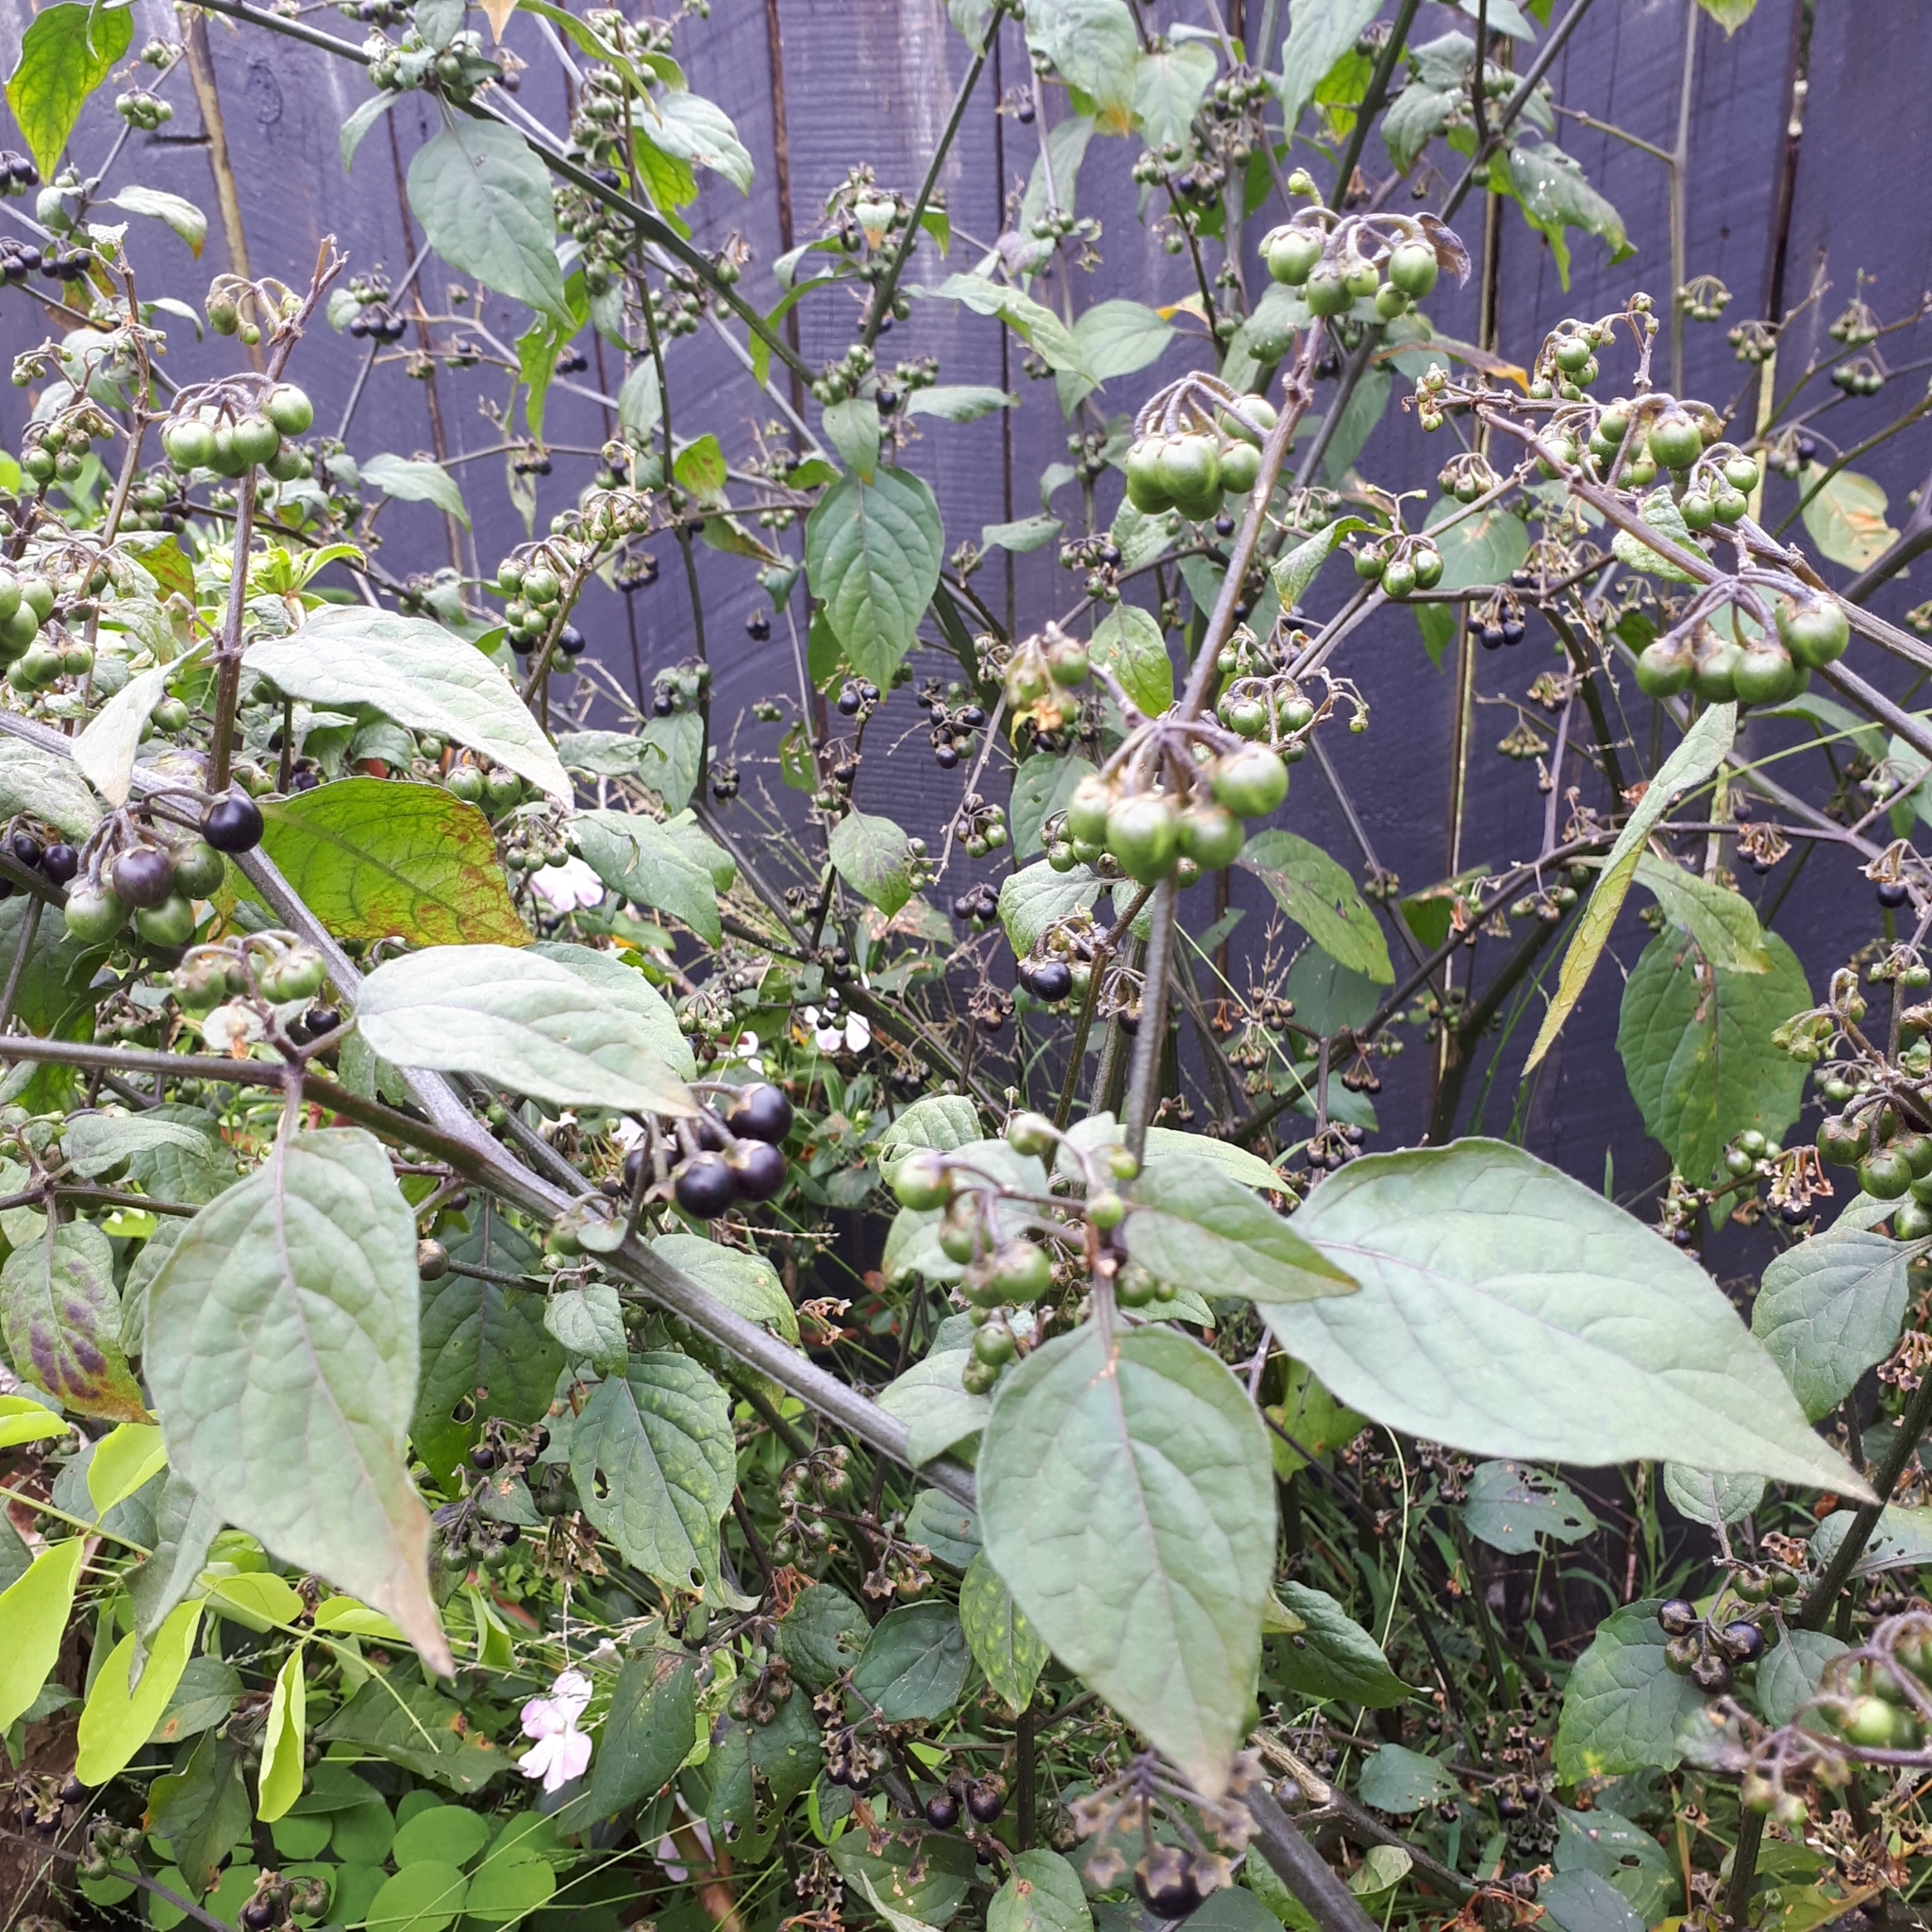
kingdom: Plantae
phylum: Tracheophyta
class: Magnoliopsida
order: Solanales
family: Solanaceae
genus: Solanum
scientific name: Solanum nigrum
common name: Black nightshade
